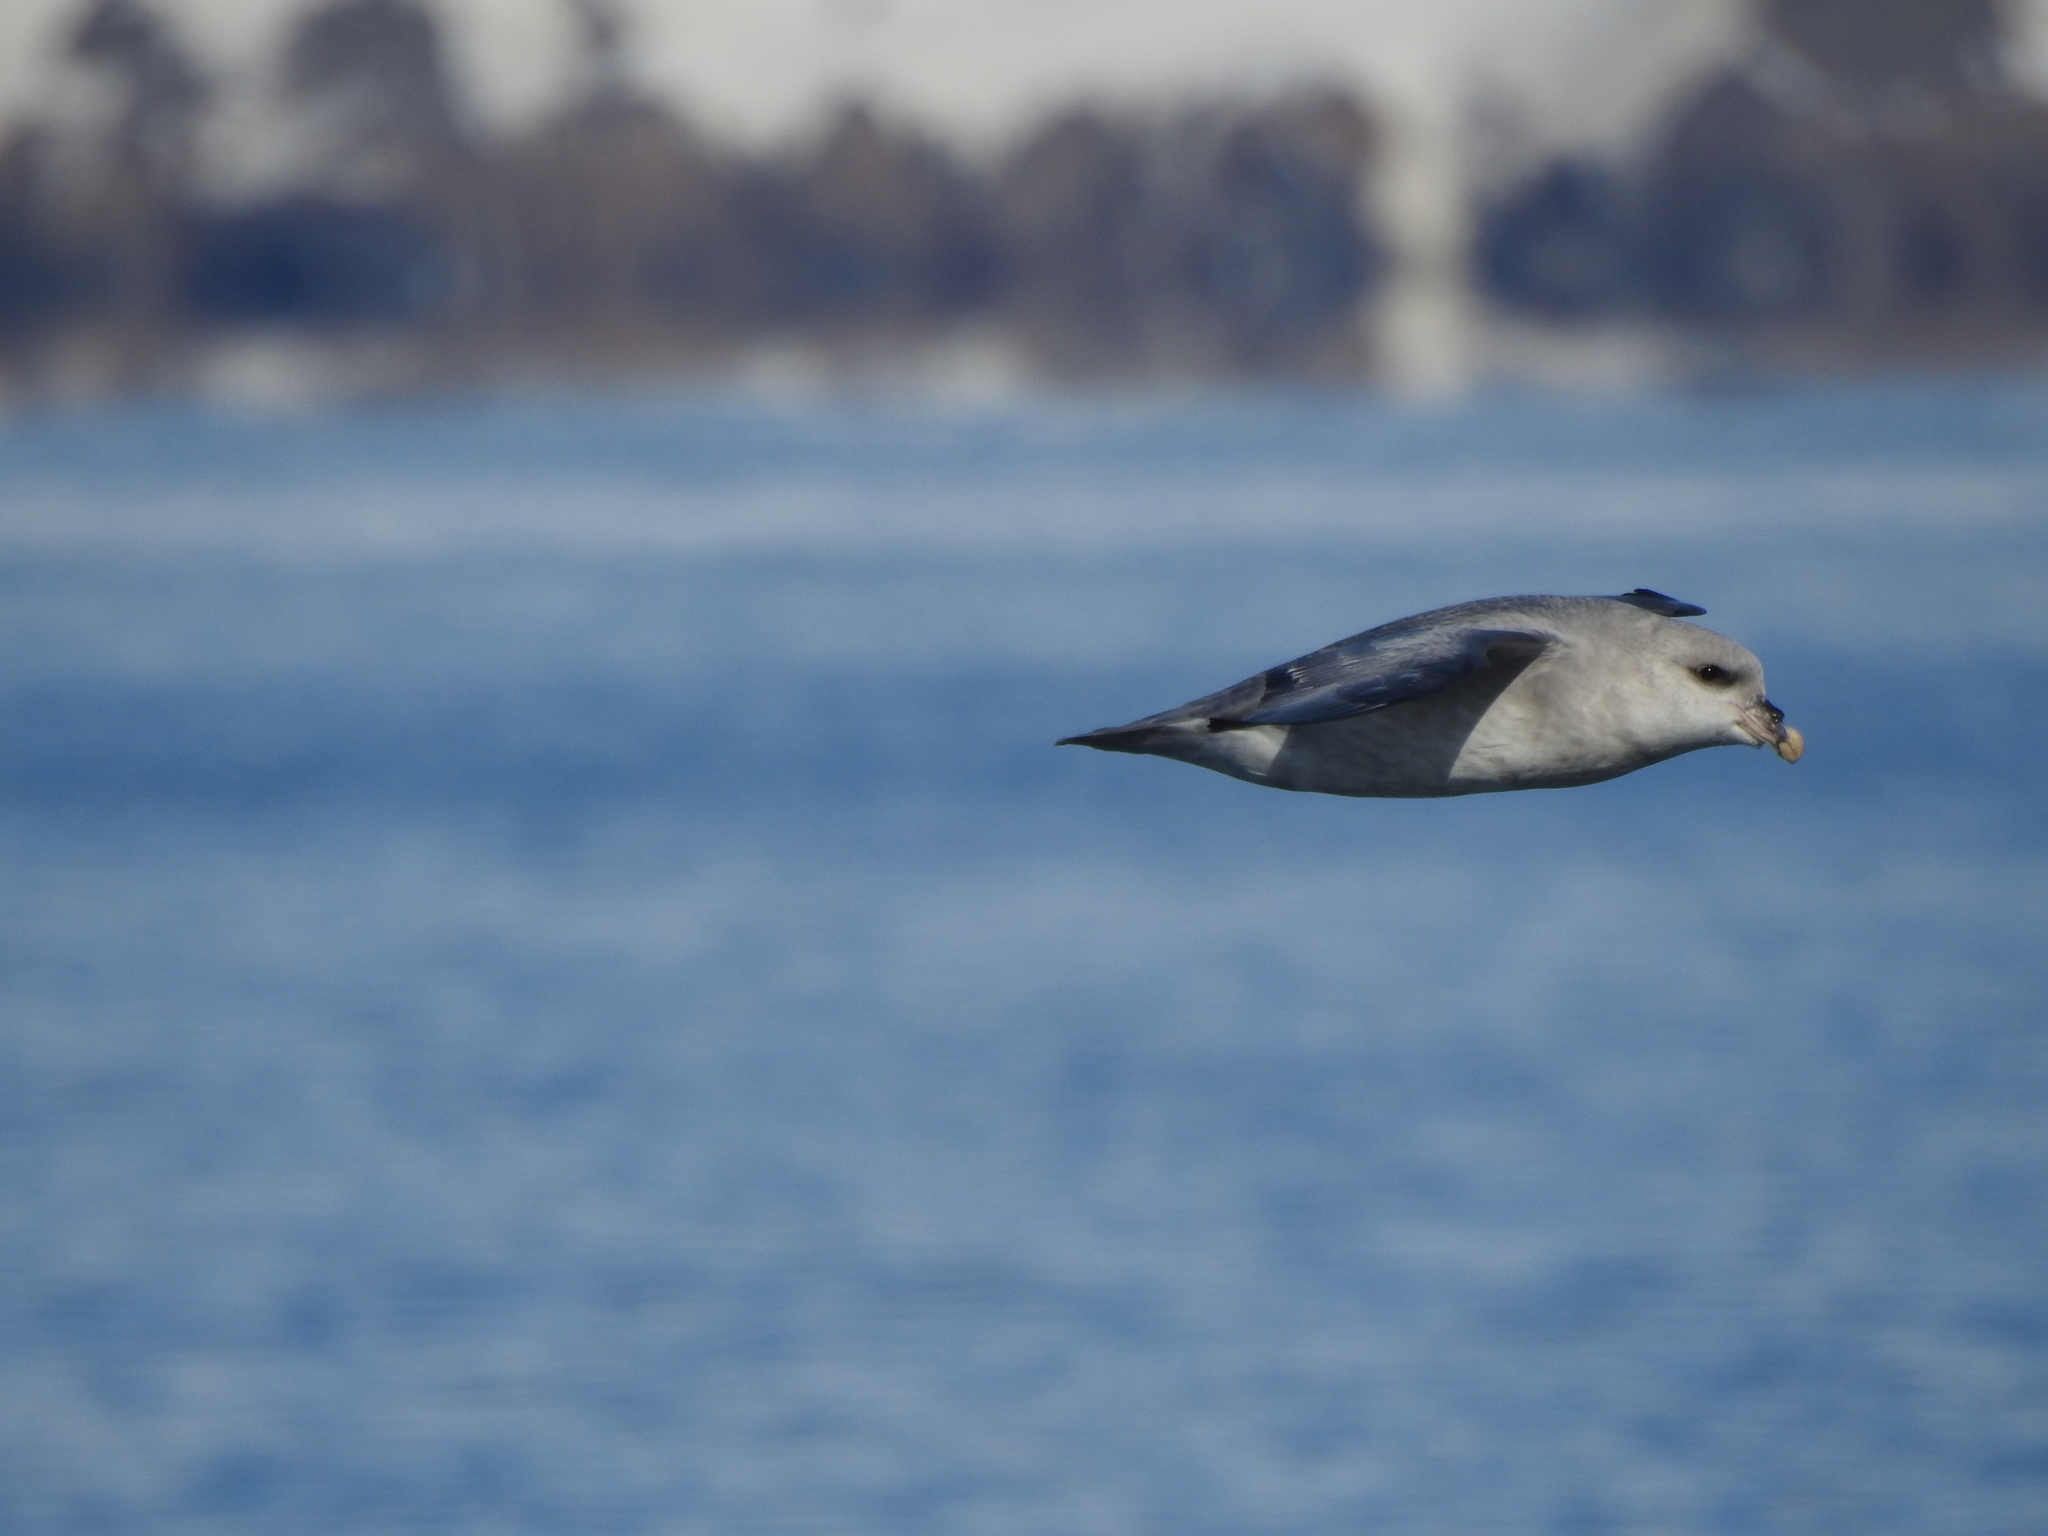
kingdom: Animalia
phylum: Chordata
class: Aves
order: Procellariiformes
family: Procellariidae
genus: Fulmarus
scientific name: Fulmarus glacialis
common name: Northern fulmar
